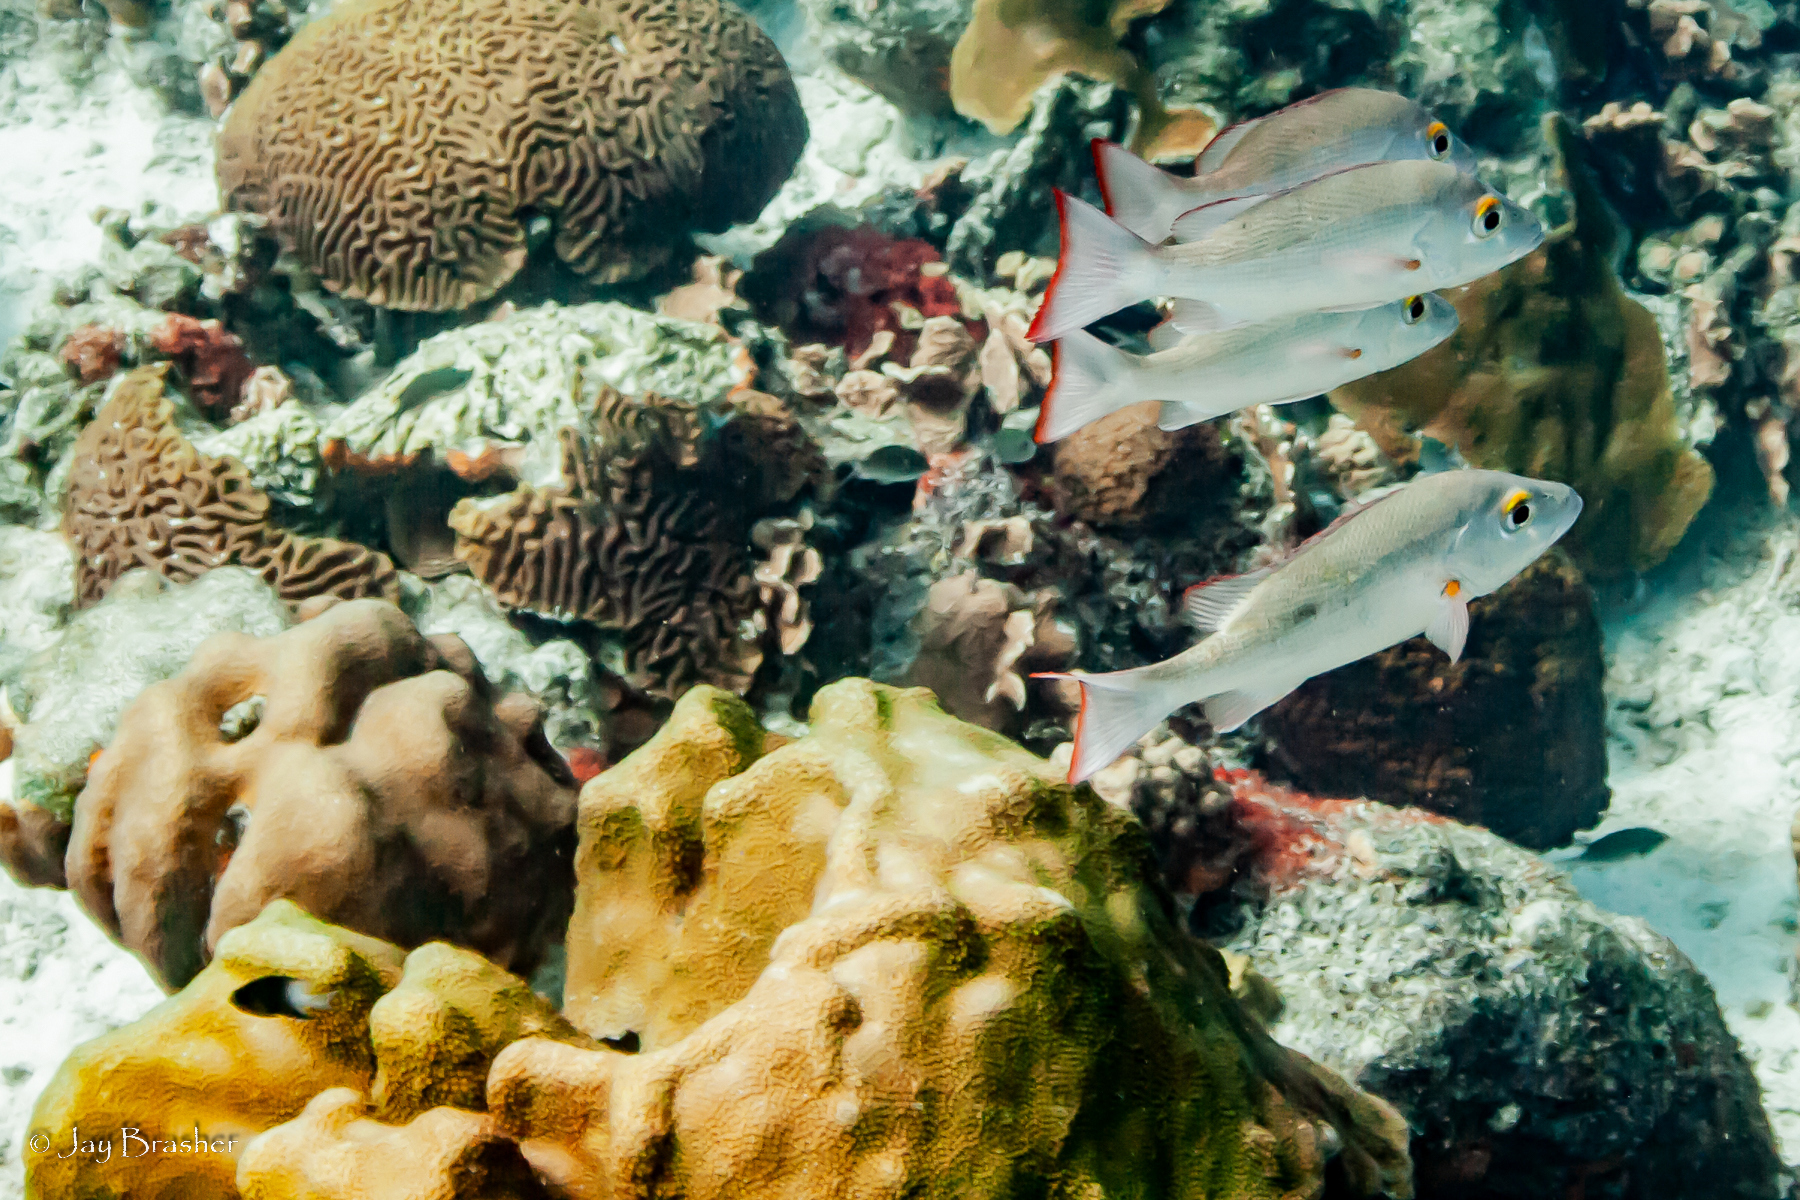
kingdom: Animalia
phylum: Cnidaria
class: Anthozoa
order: Scleractinia
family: Merulinidae
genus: Orbicella
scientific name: Orbicella faveolata
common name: Mountainous star coral
